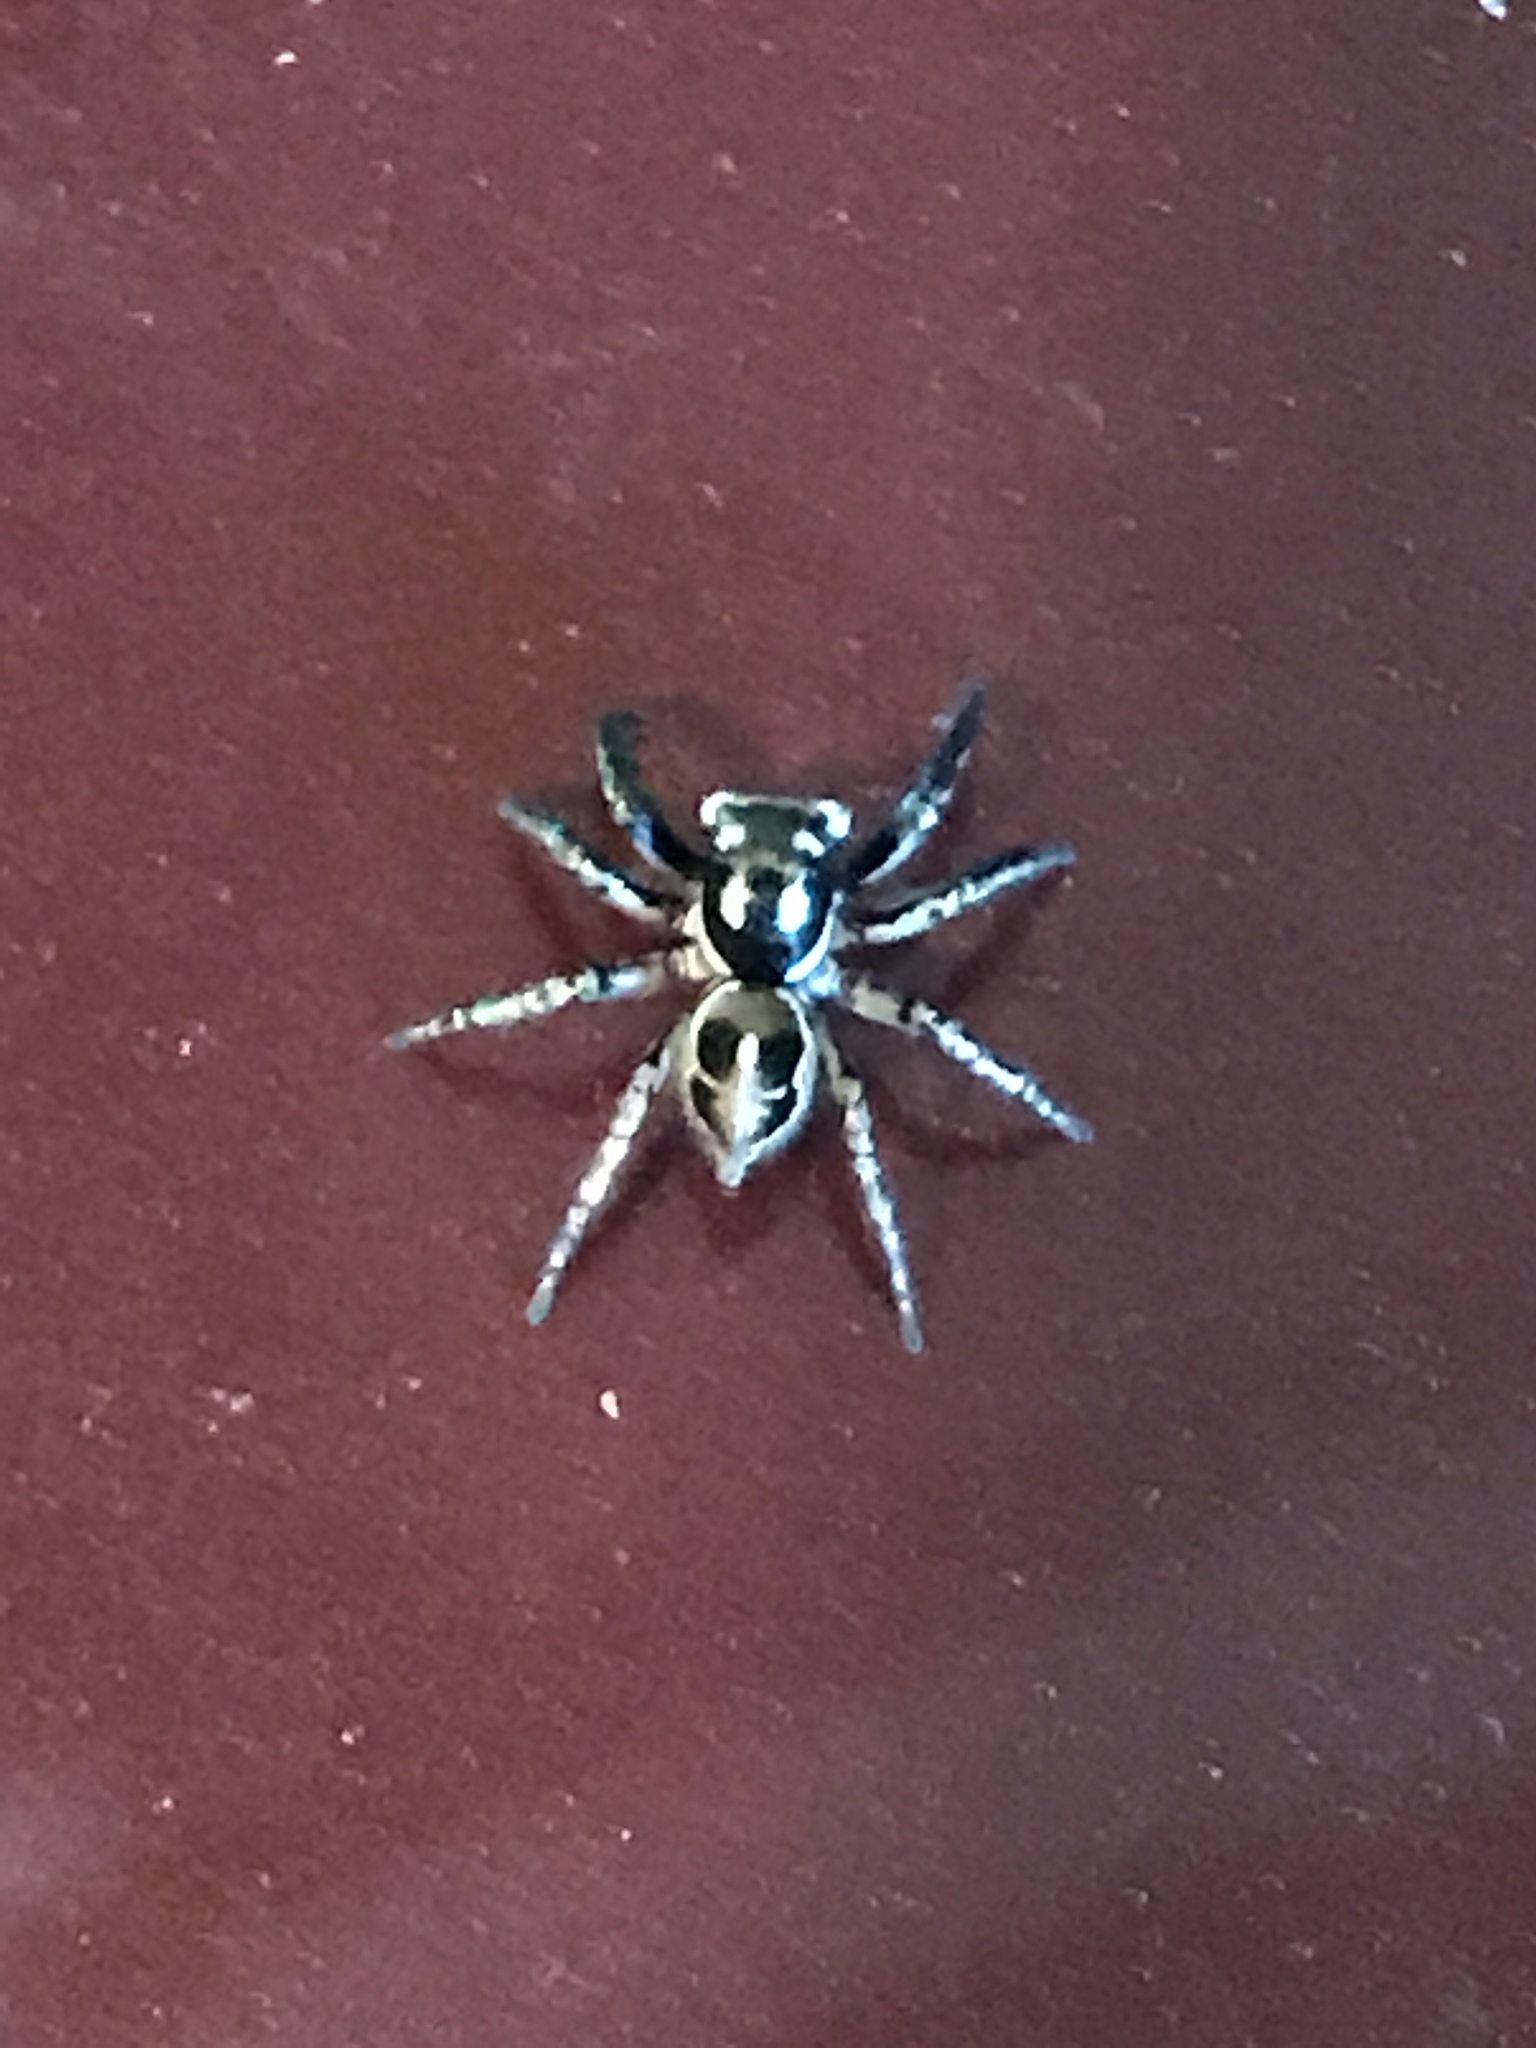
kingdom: Animalia
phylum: Arthropoda
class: Arachnida
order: Araneae
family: Salticidae
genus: Anasaitis
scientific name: Anasaitis canosa
